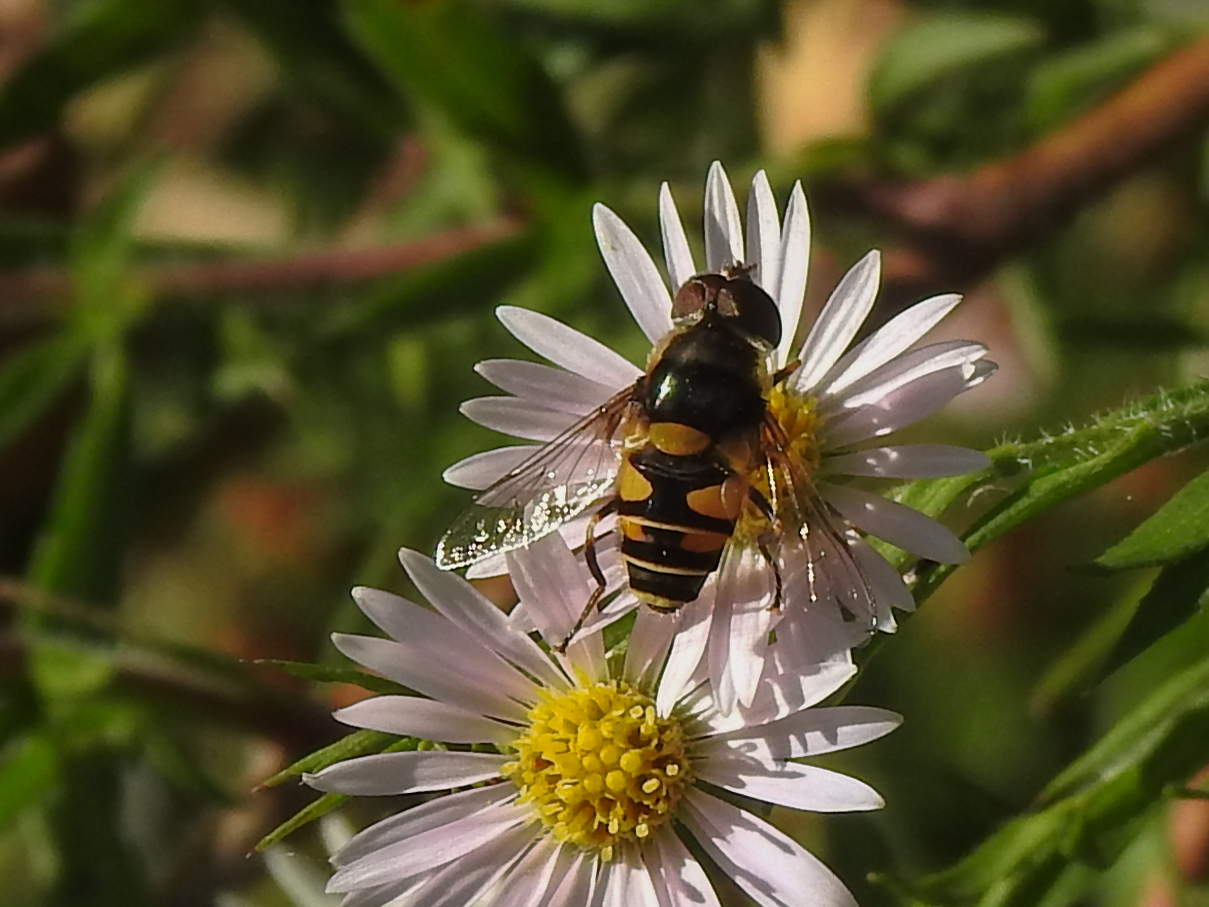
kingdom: Animalia
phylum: Arthropoda
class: Insecta
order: Diptera
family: Syrphidae
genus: Eristalis
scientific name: Eristalis transversa
